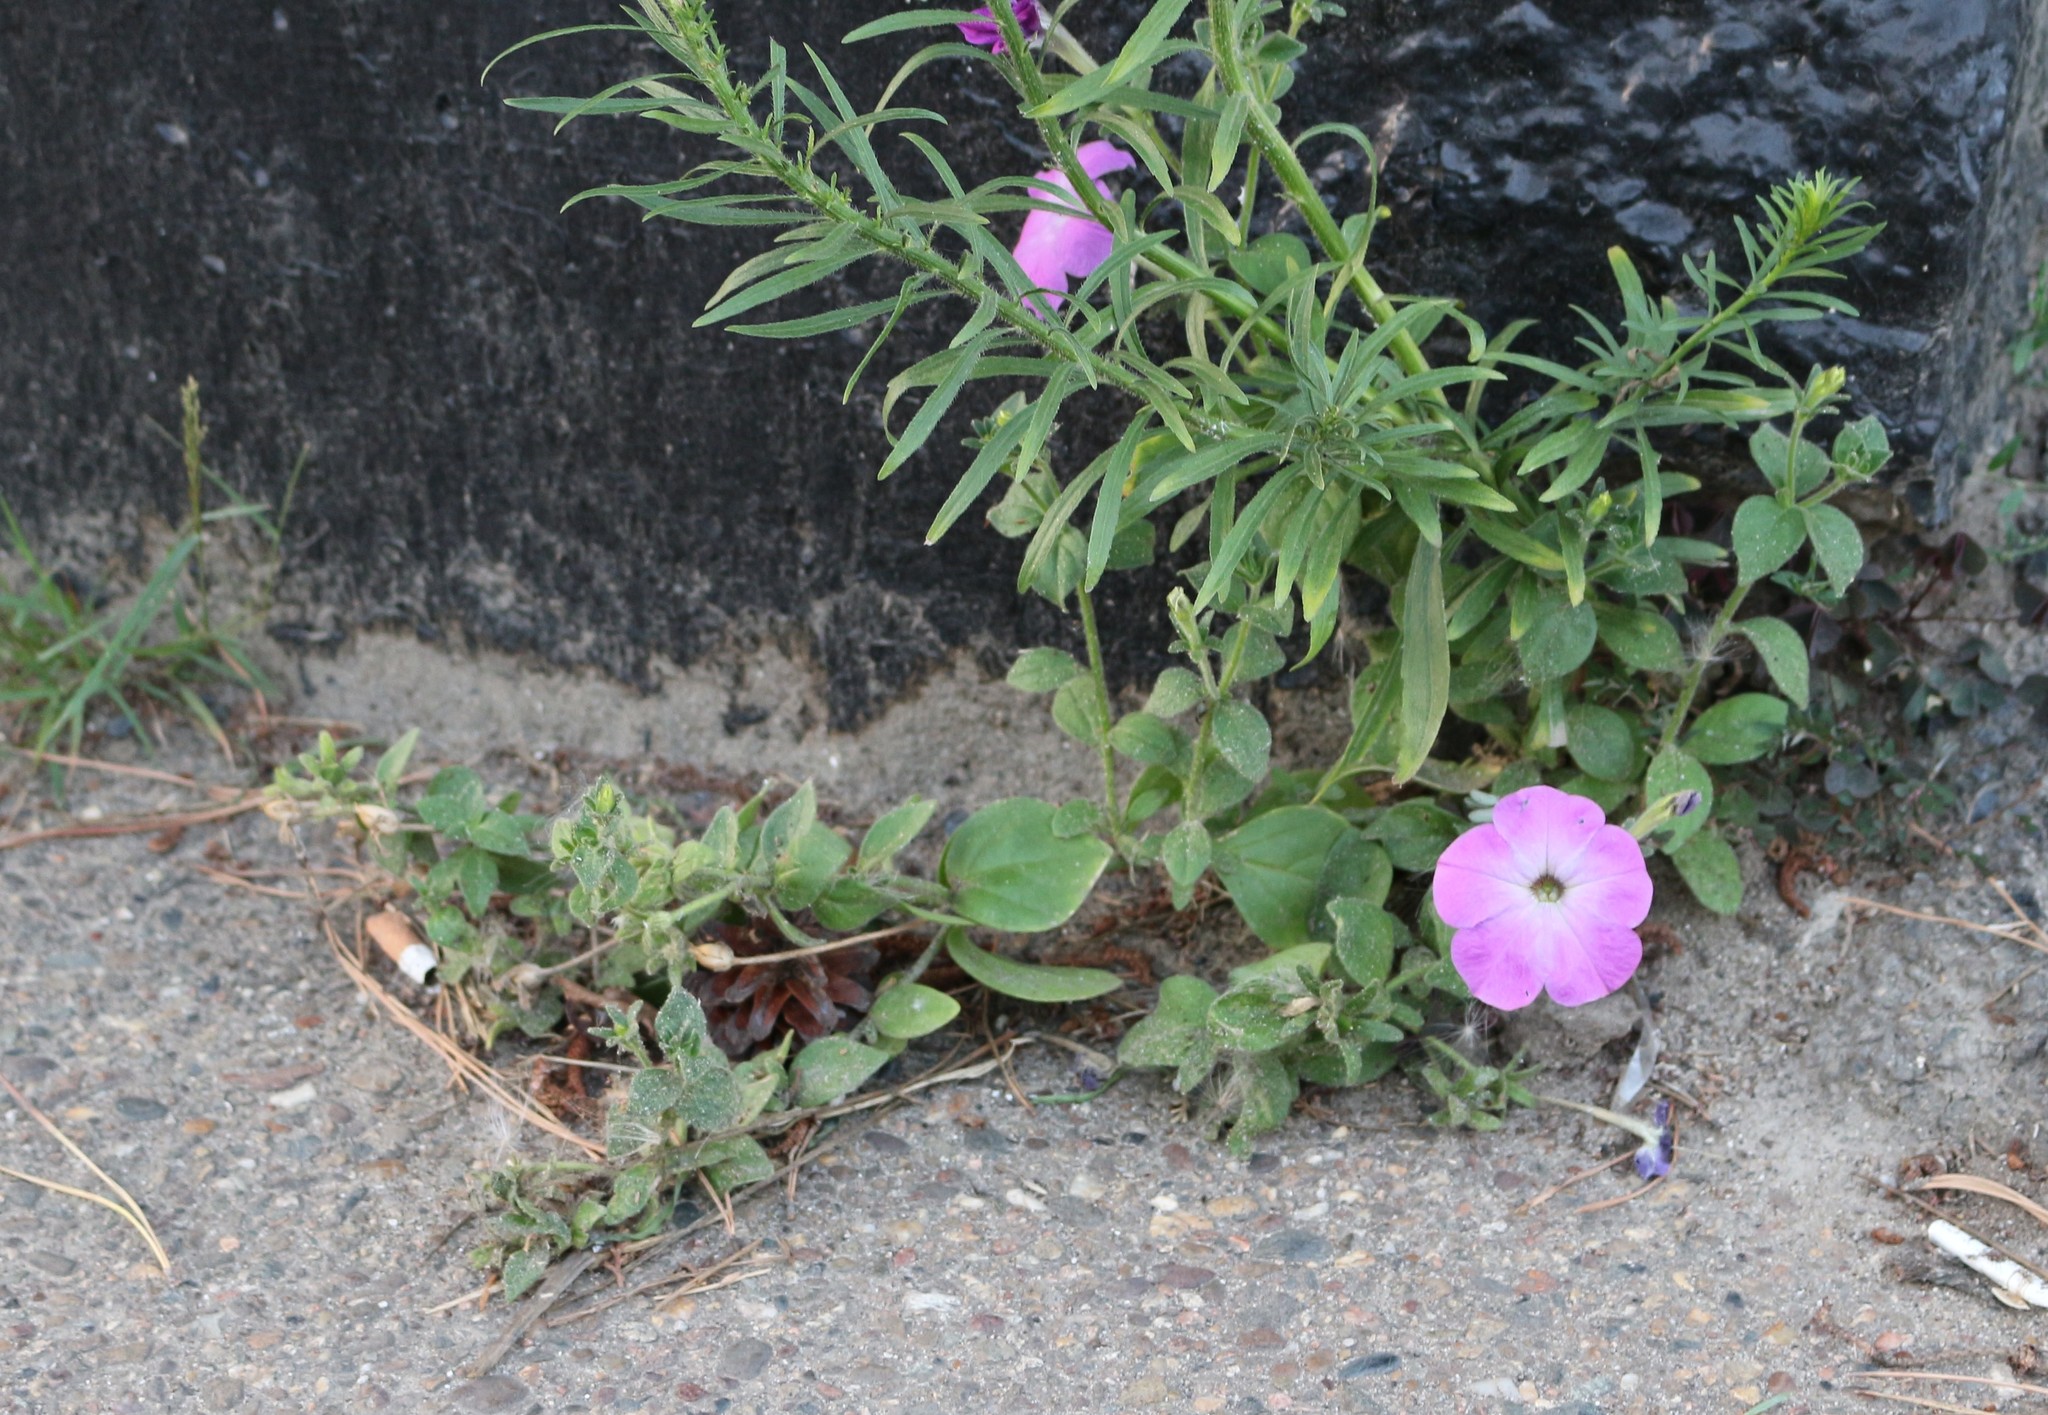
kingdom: Plantae
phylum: Tracheophyta
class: Magnoliopsida
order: Solanales
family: Solanaceae
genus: Petunia
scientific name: Petunia atkinsiana
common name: Petunia
